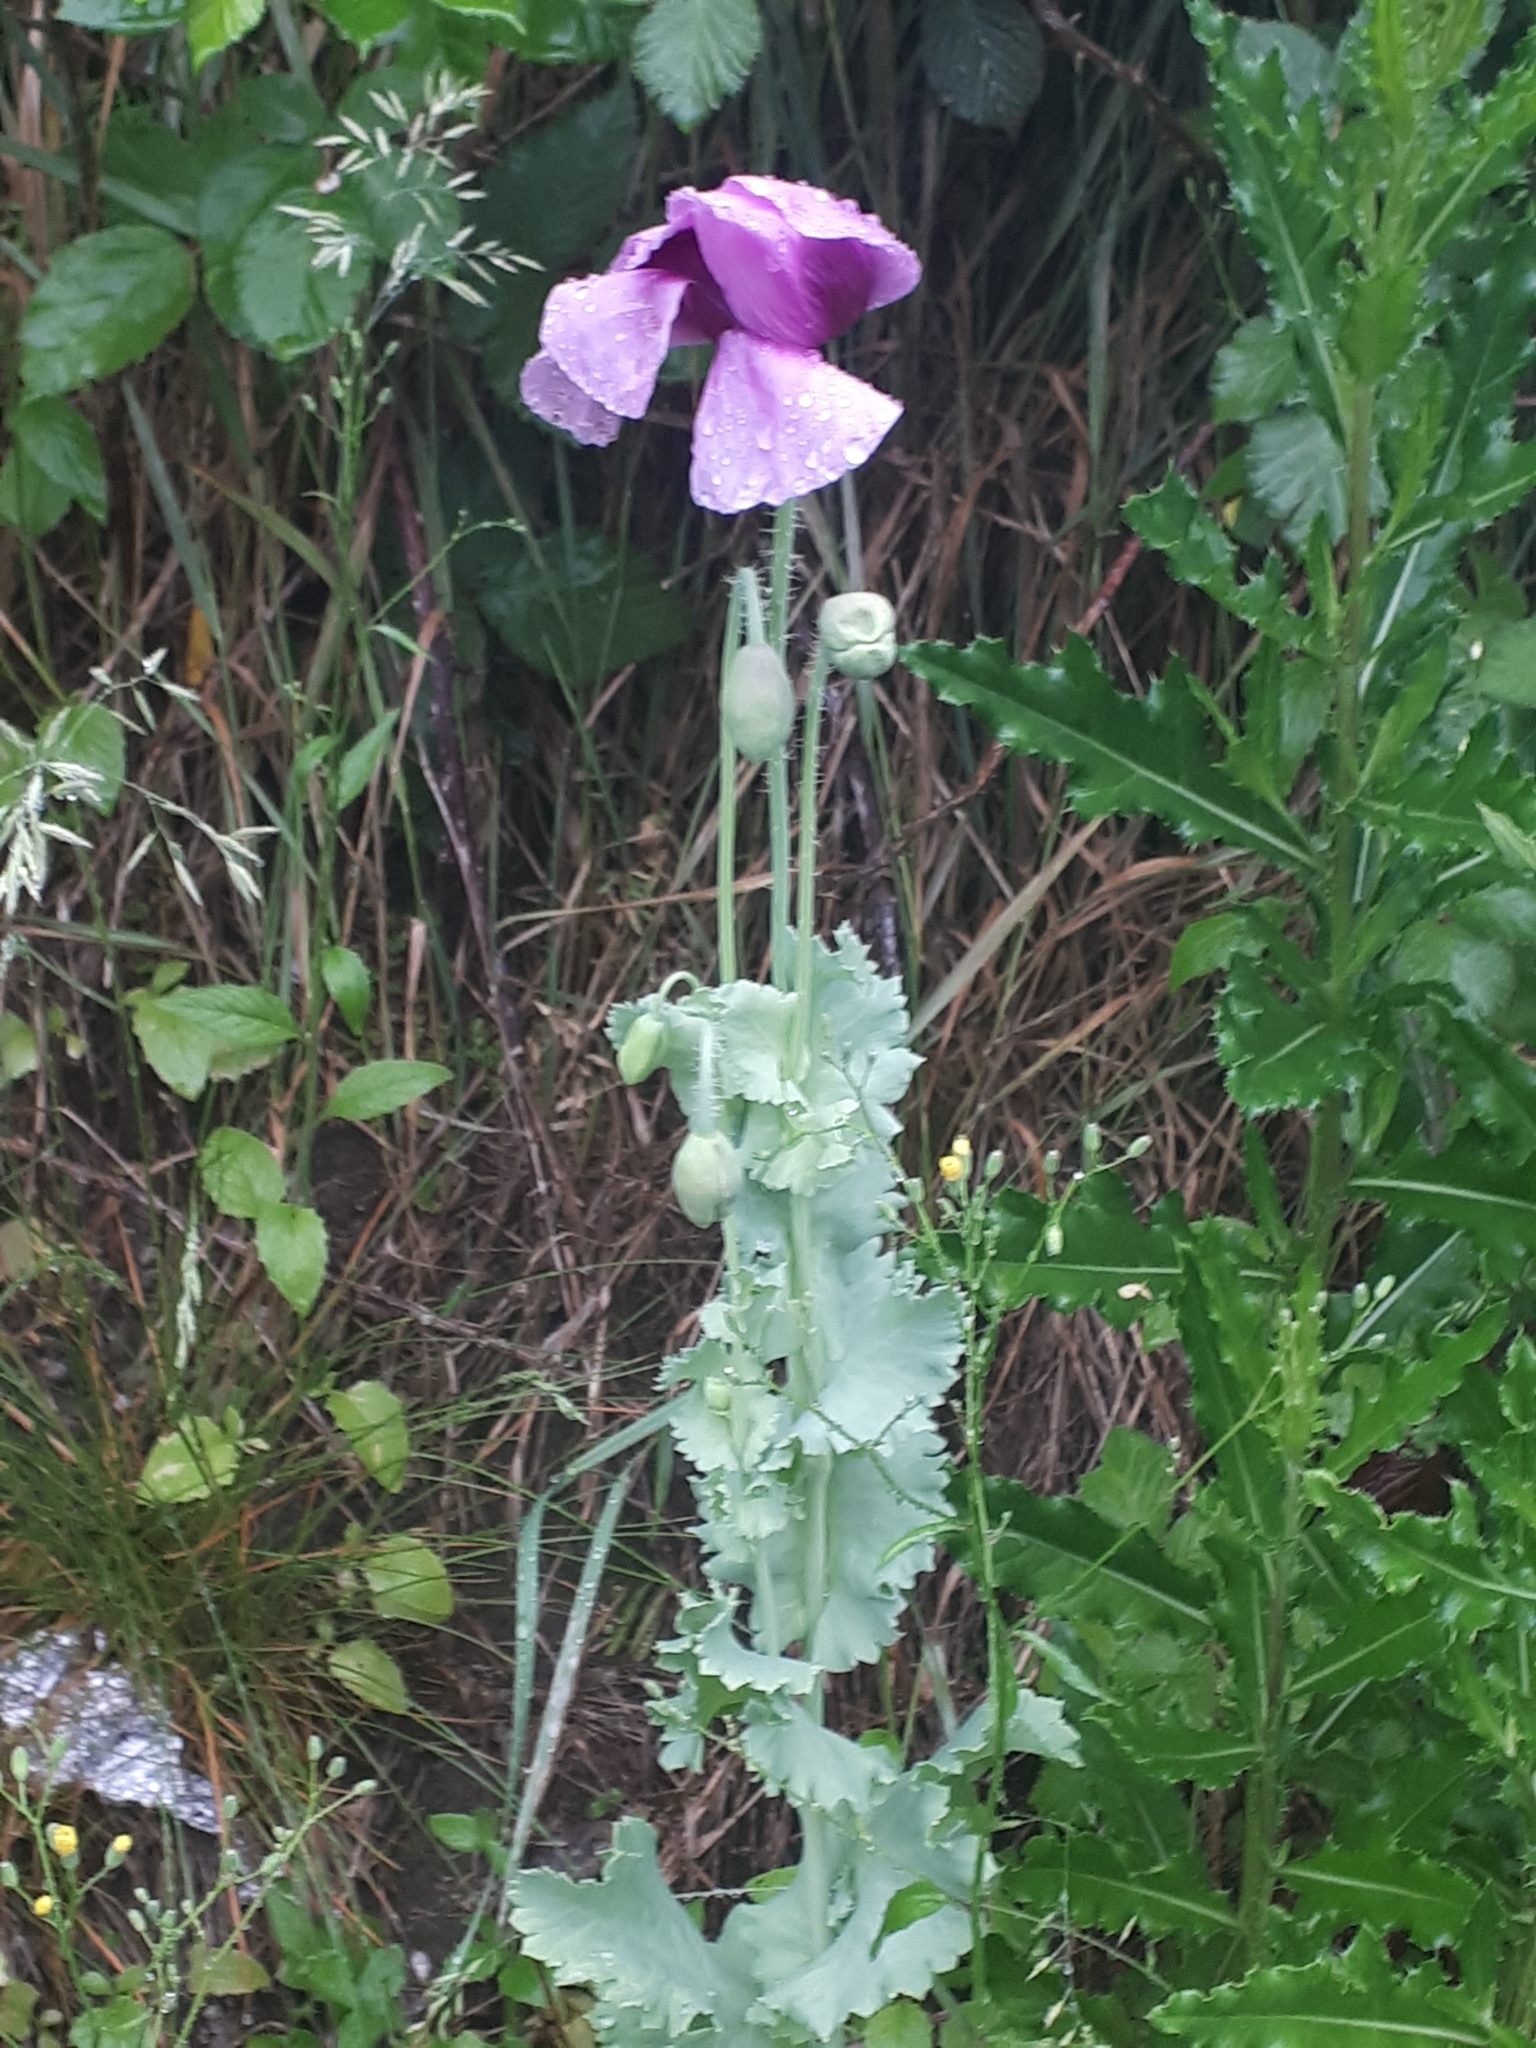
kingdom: Plantae
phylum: Tracheophyta
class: Magnoliopsida
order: Ranunculales
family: Papaveraceae
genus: Papaver
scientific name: Papaver somniferum
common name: Opium poppy
